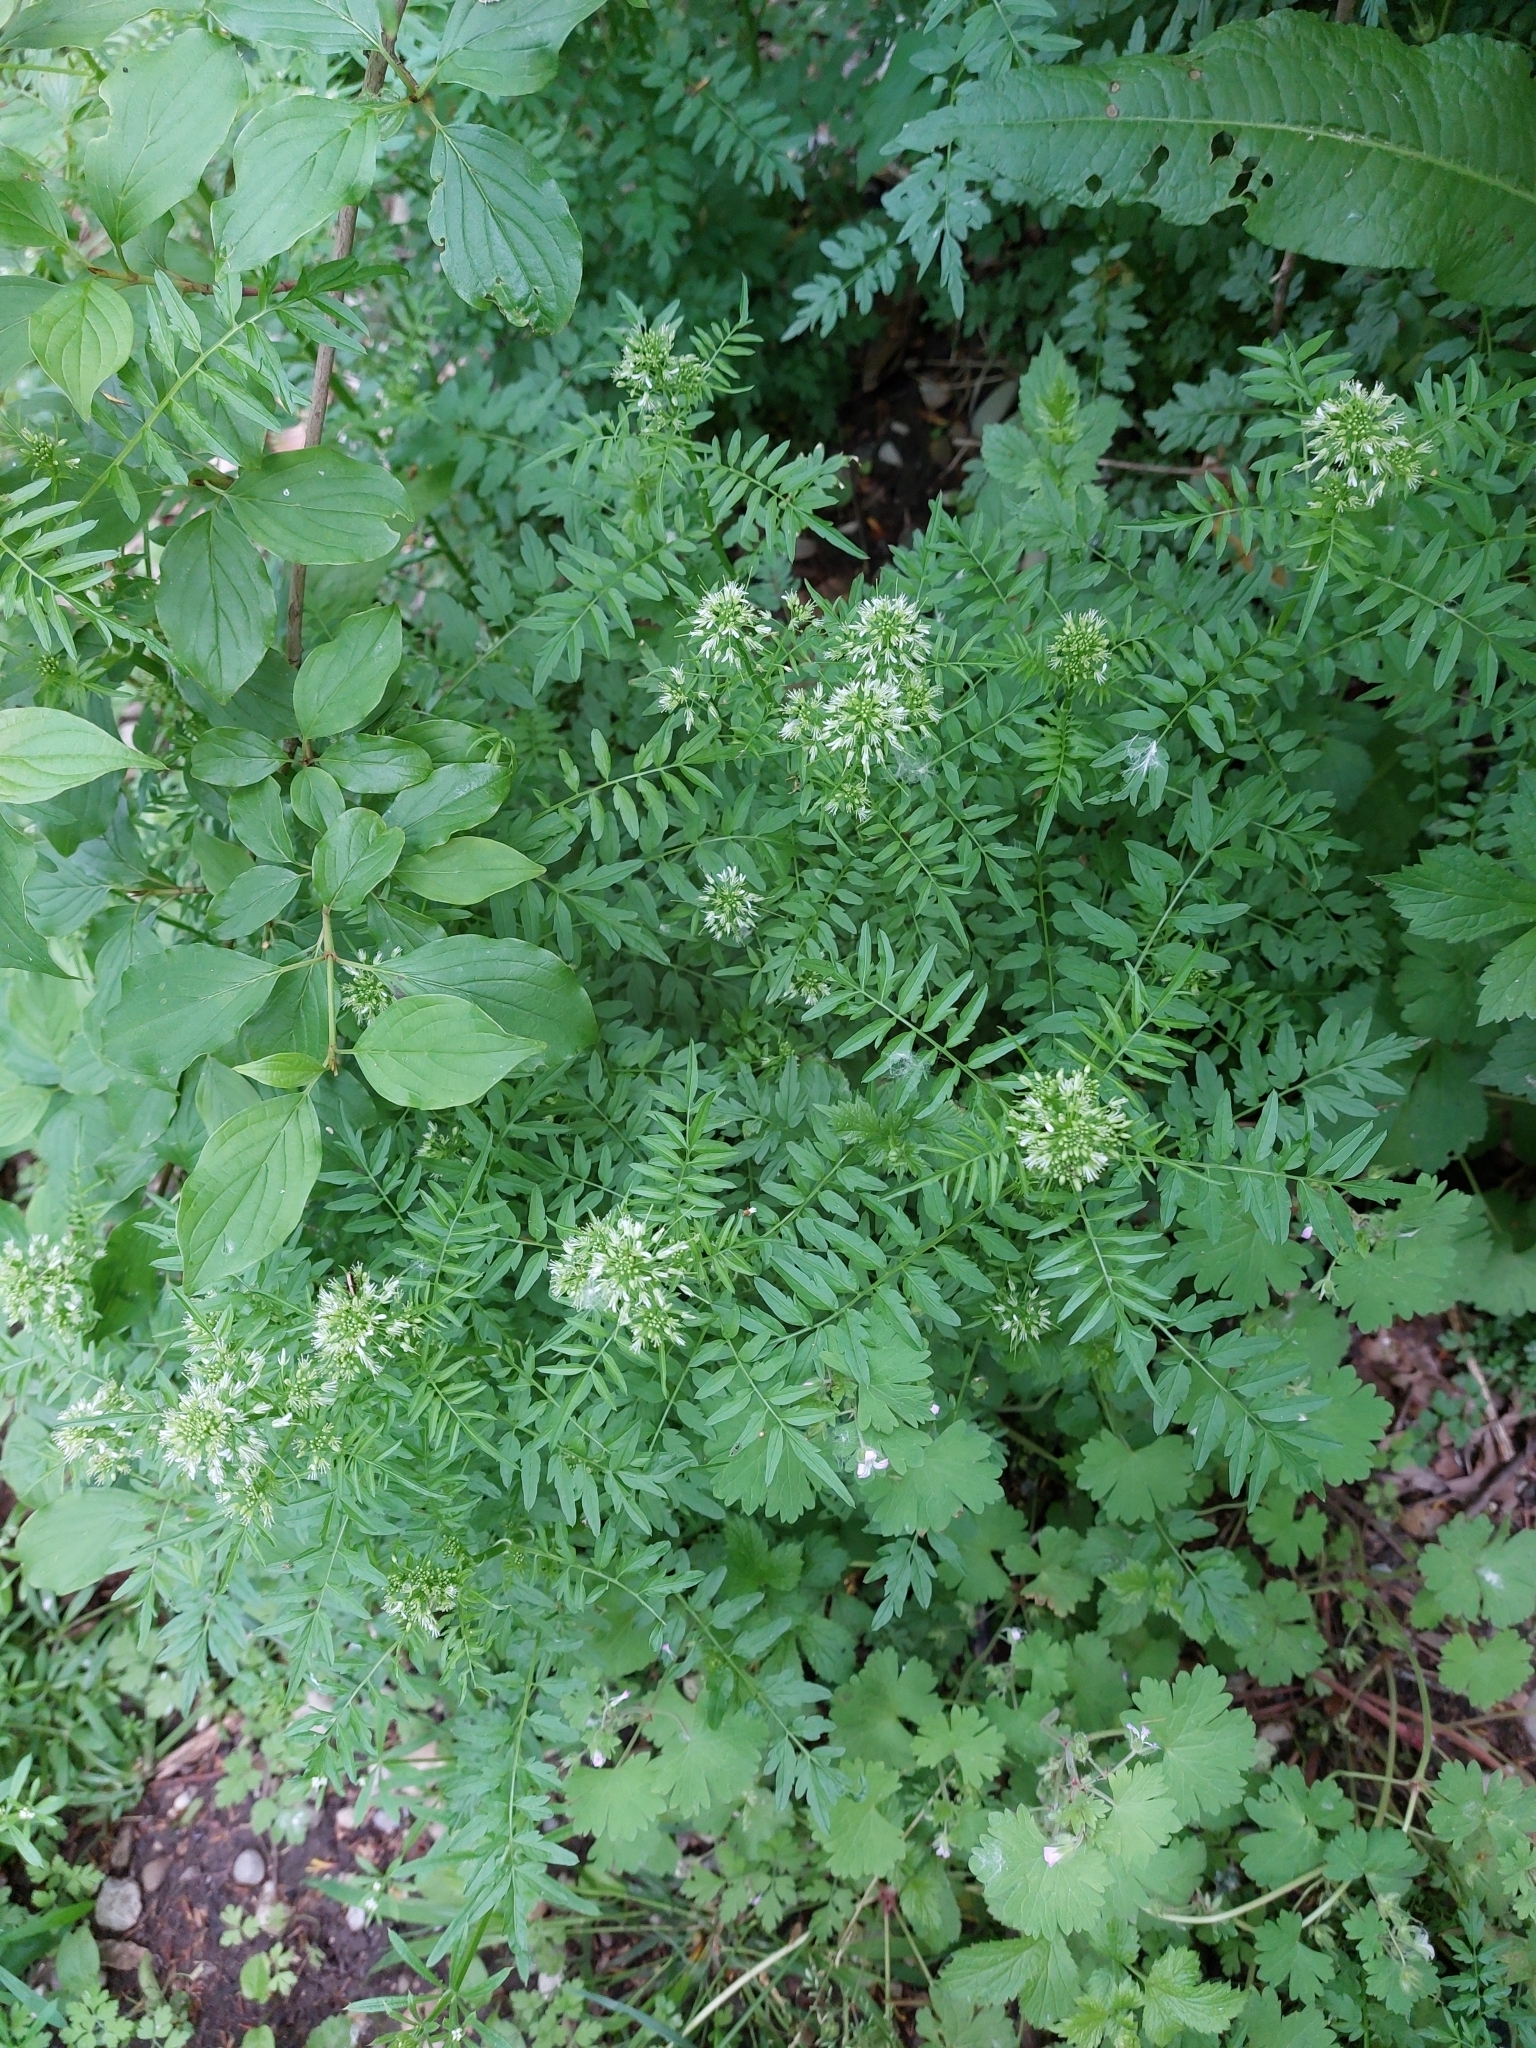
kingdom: Plantae
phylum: Tracheophyta
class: Magnoliopsida
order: Brassicales
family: Brassicaceae
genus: Cardamine
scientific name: Cardamine impatiens
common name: Narrow-leaved bitter-cress
